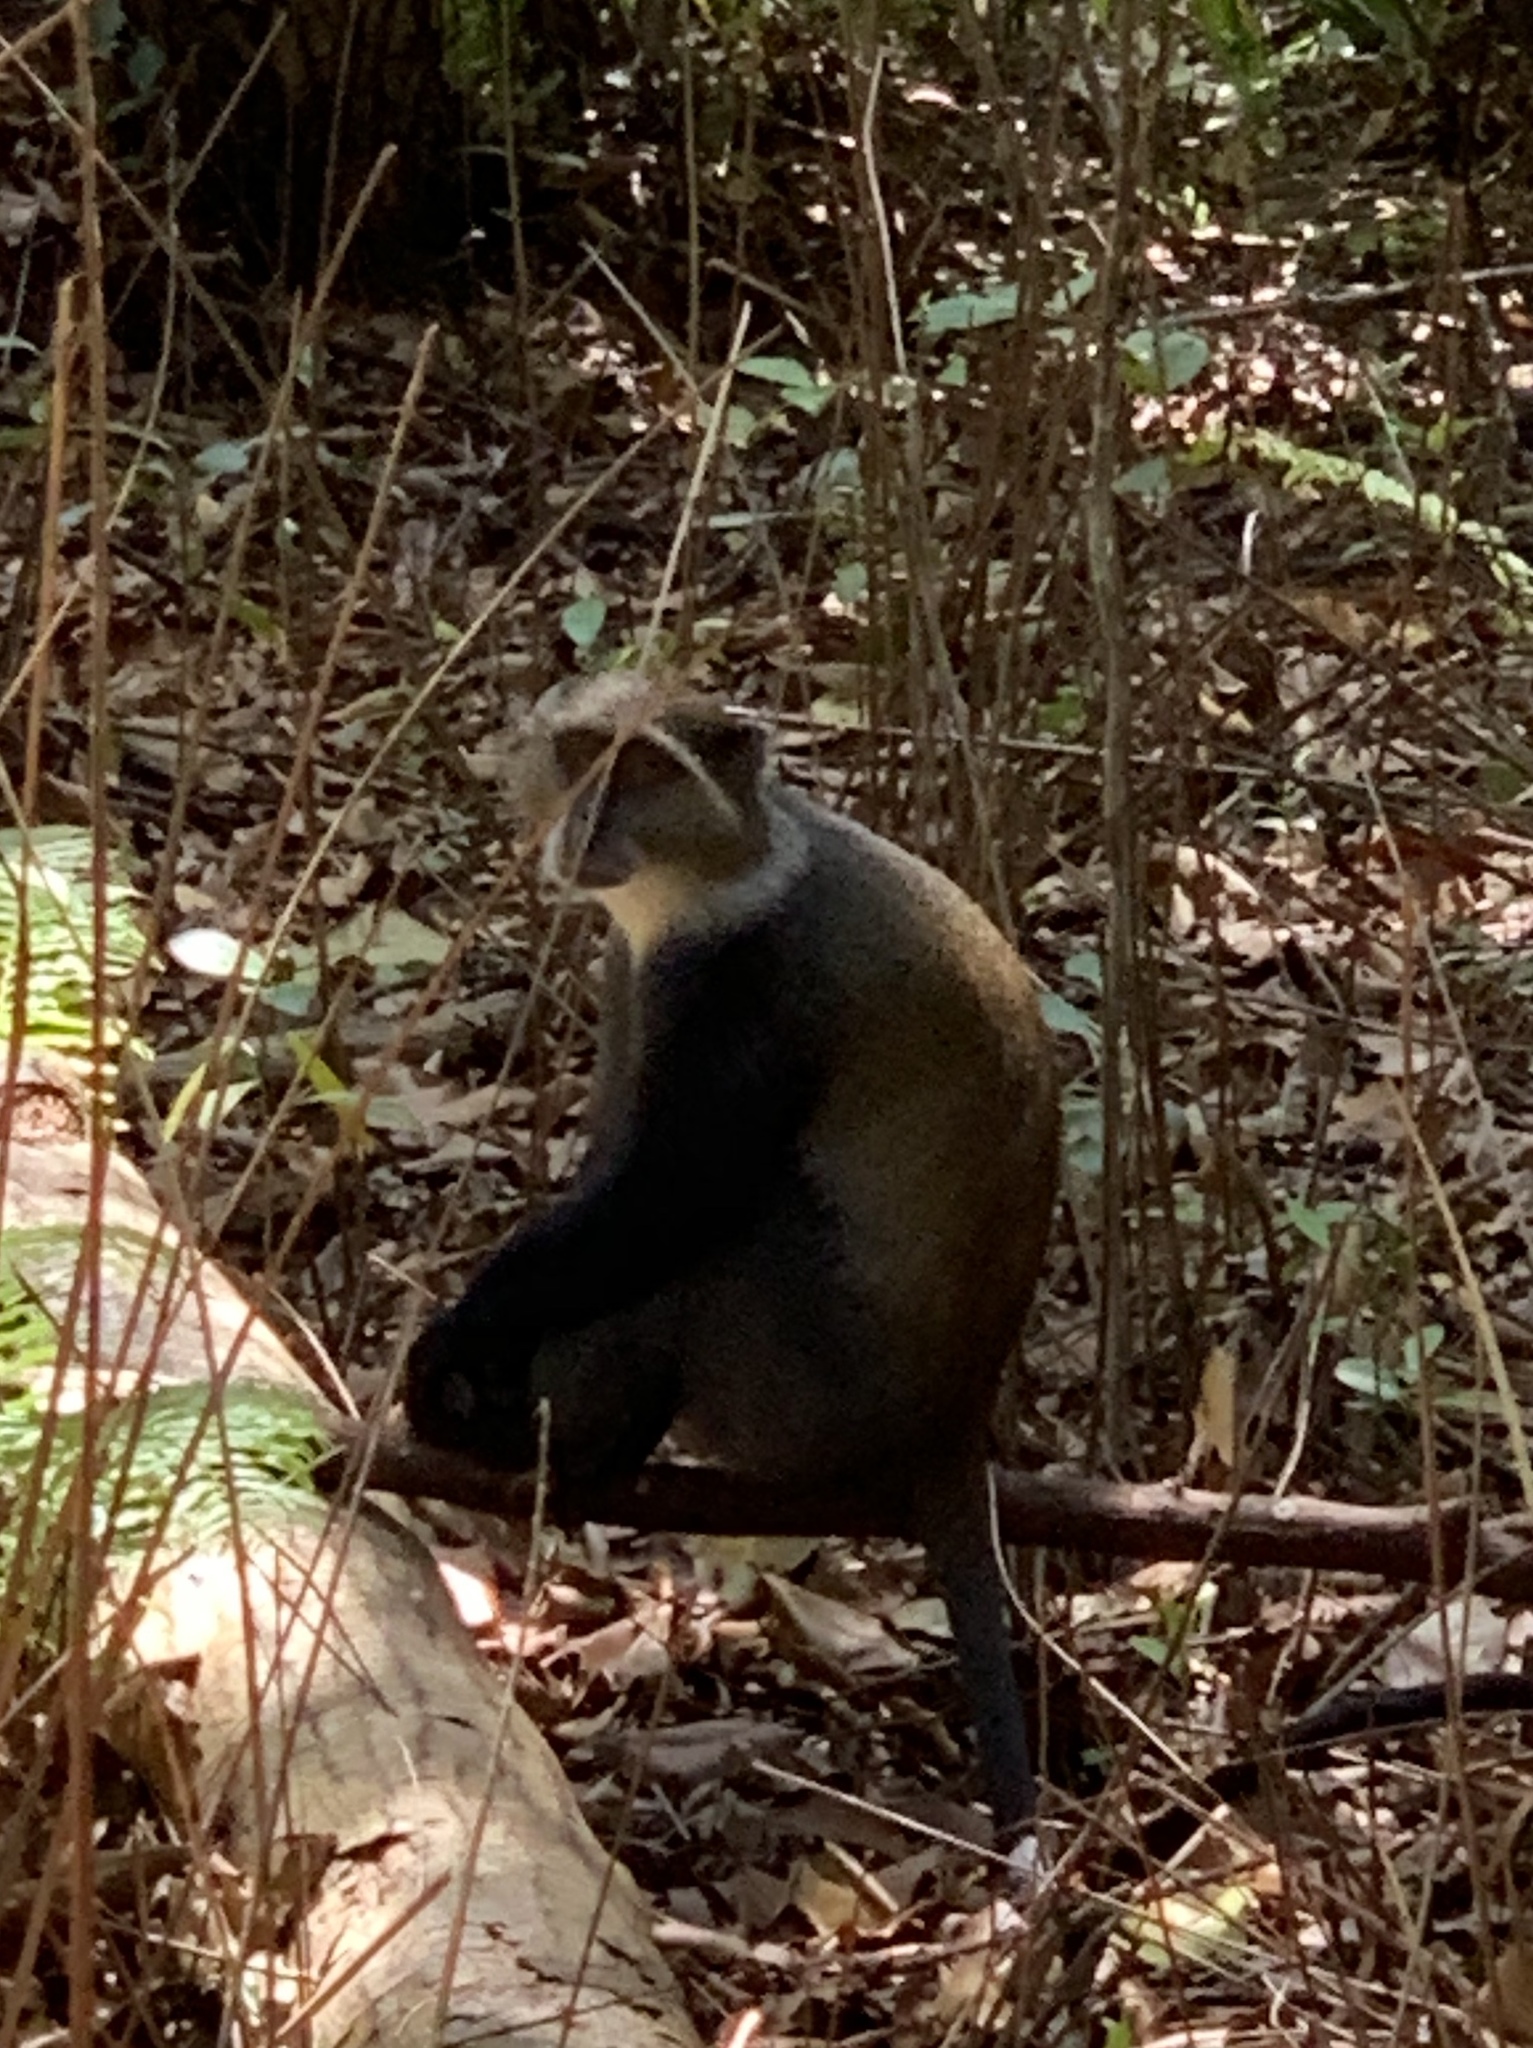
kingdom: Animalia
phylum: Chordata
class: Mammalia
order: Primates
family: Cercopithecidae
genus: Cercopithecus
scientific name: Cercopithecus mitis
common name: Blue monkey
